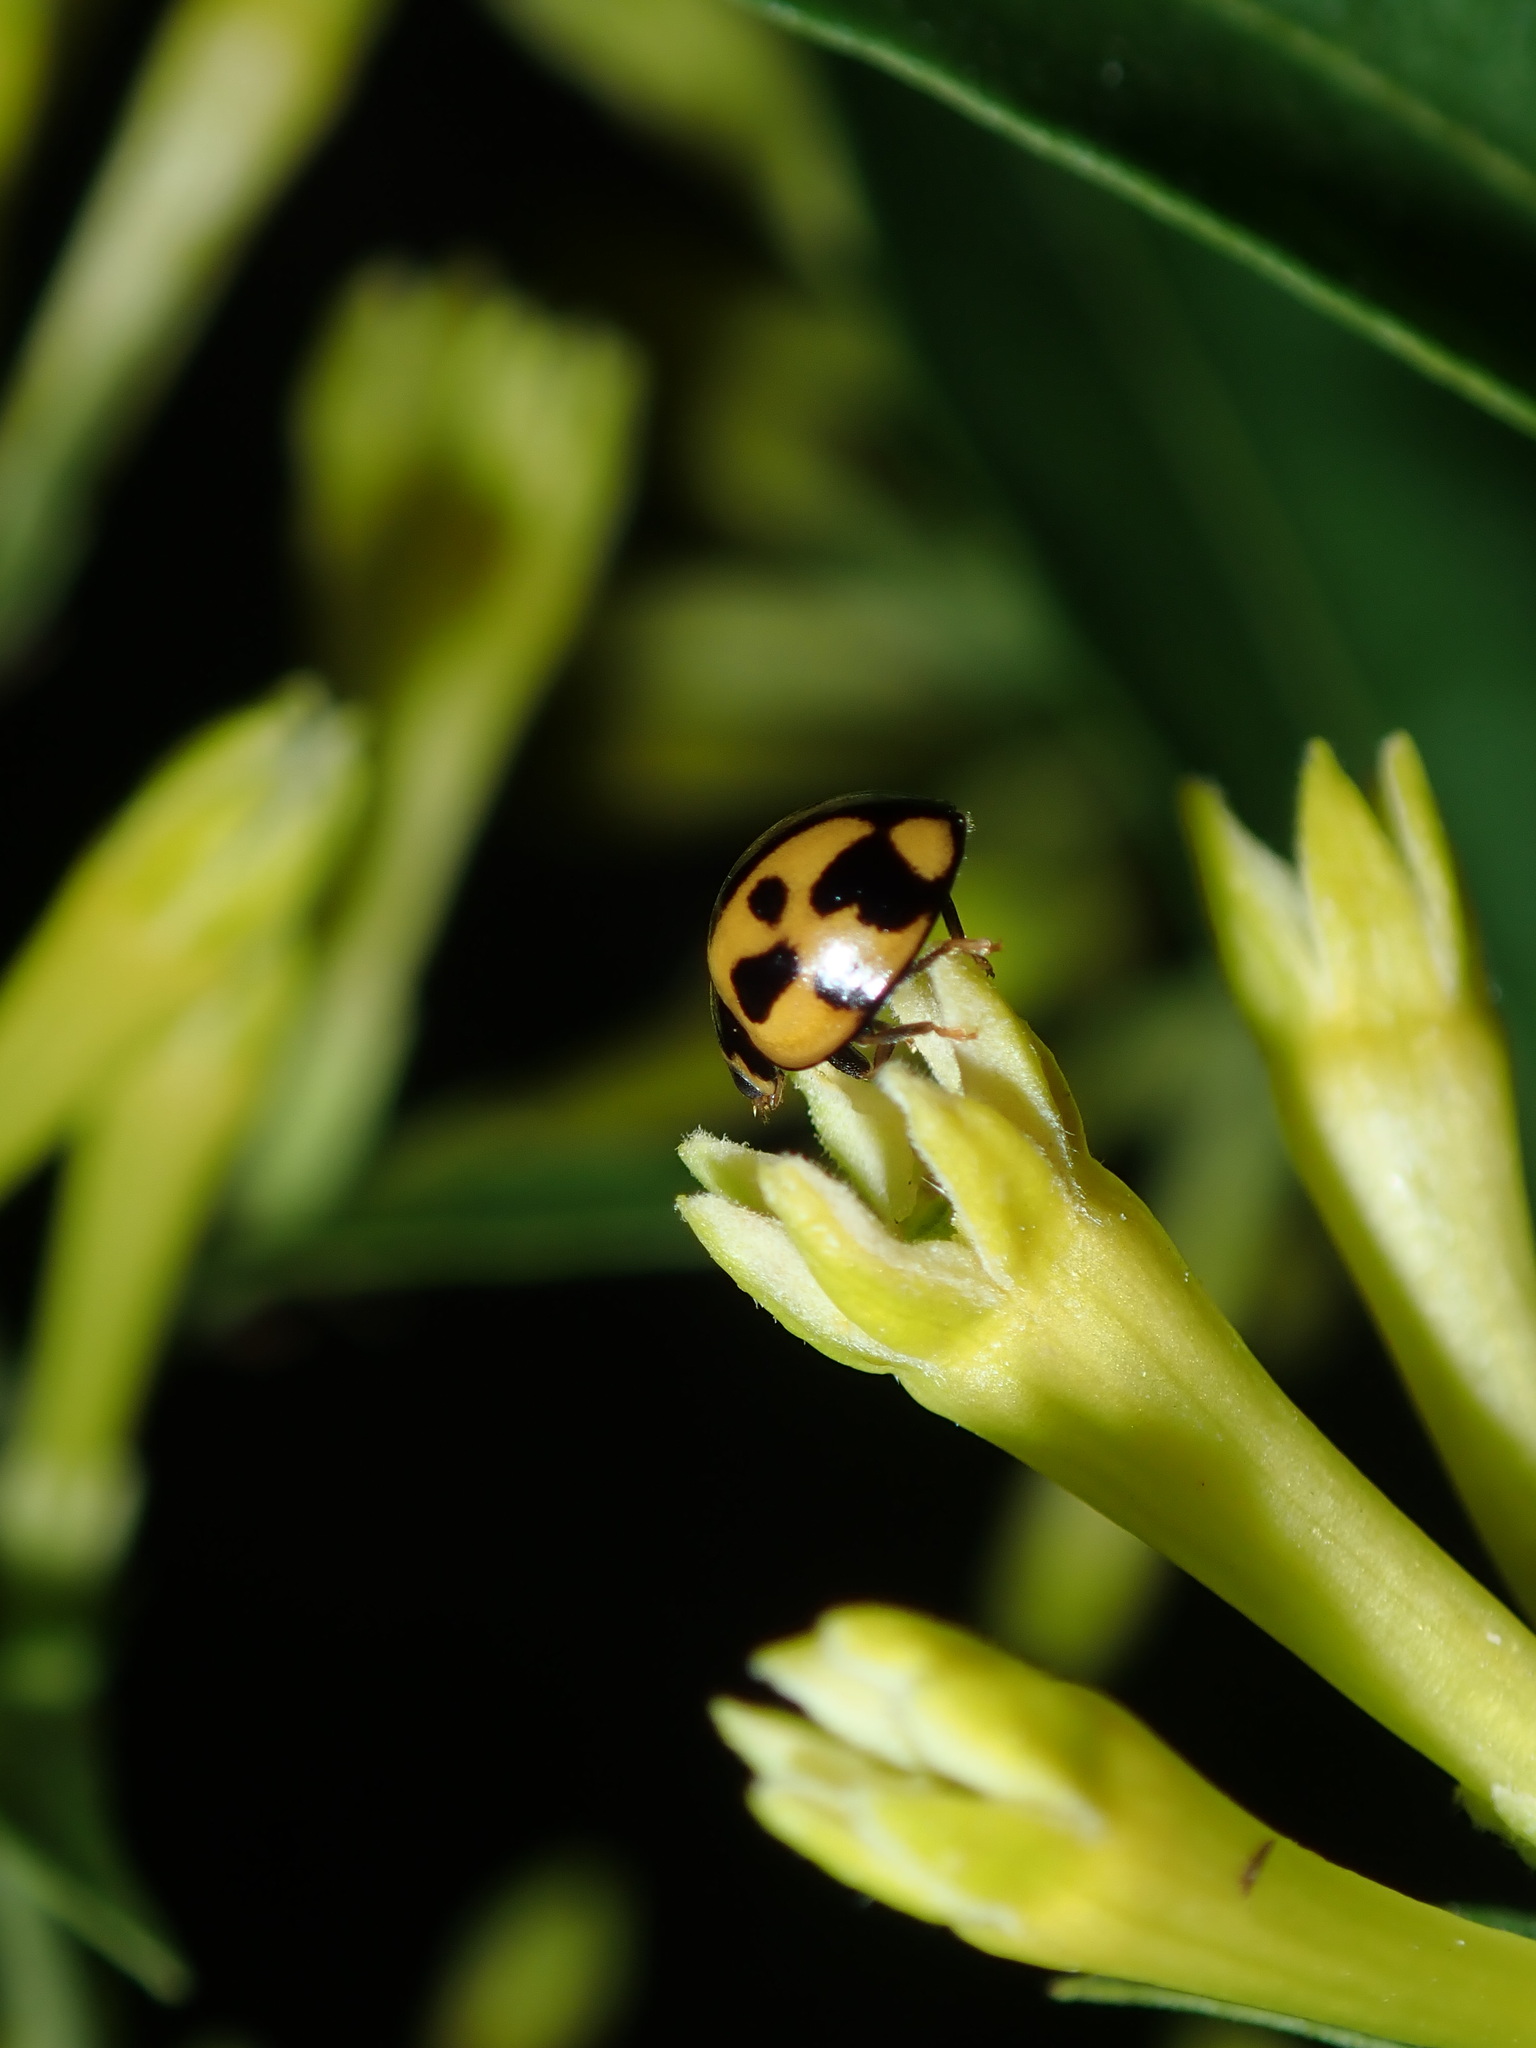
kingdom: Animalia
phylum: Arthropoda
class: Insecta
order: Coleoptera
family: Coccinellidae
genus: Coelophora
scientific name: Coelophora inaequalis
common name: Common australian lady beetle
